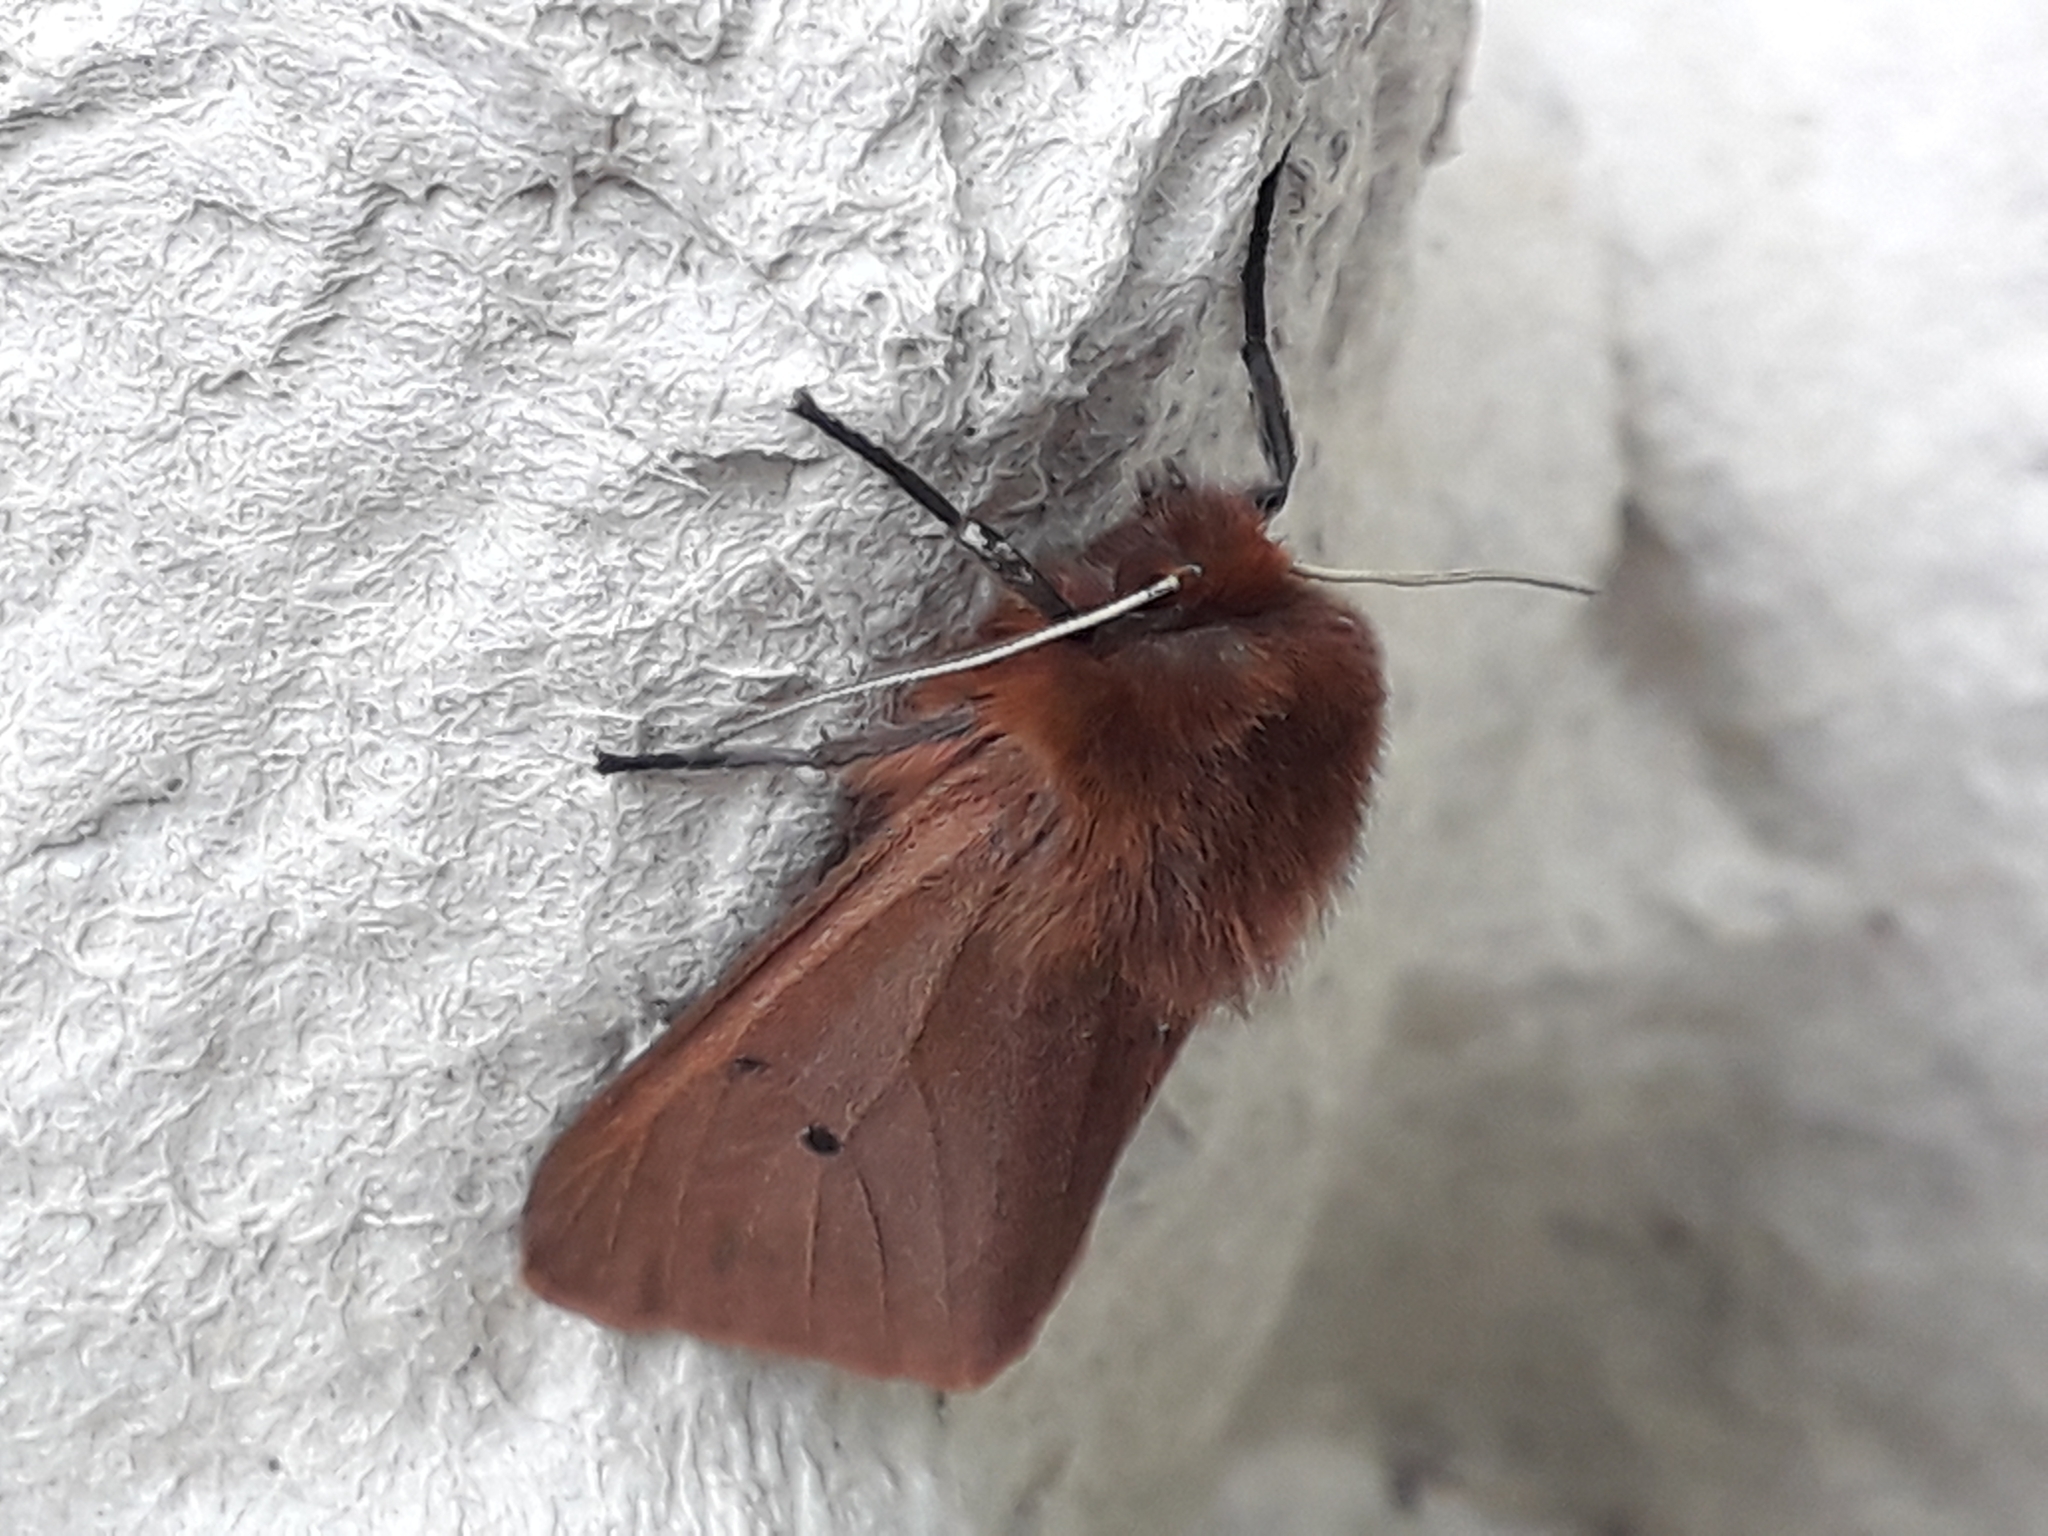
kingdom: Animalia
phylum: Arthropoda
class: Insecta
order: Lepidoptera
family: Erebidae
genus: Phragmatobia
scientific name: Phragmatobia fuliginosa
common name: Ruby tiger
